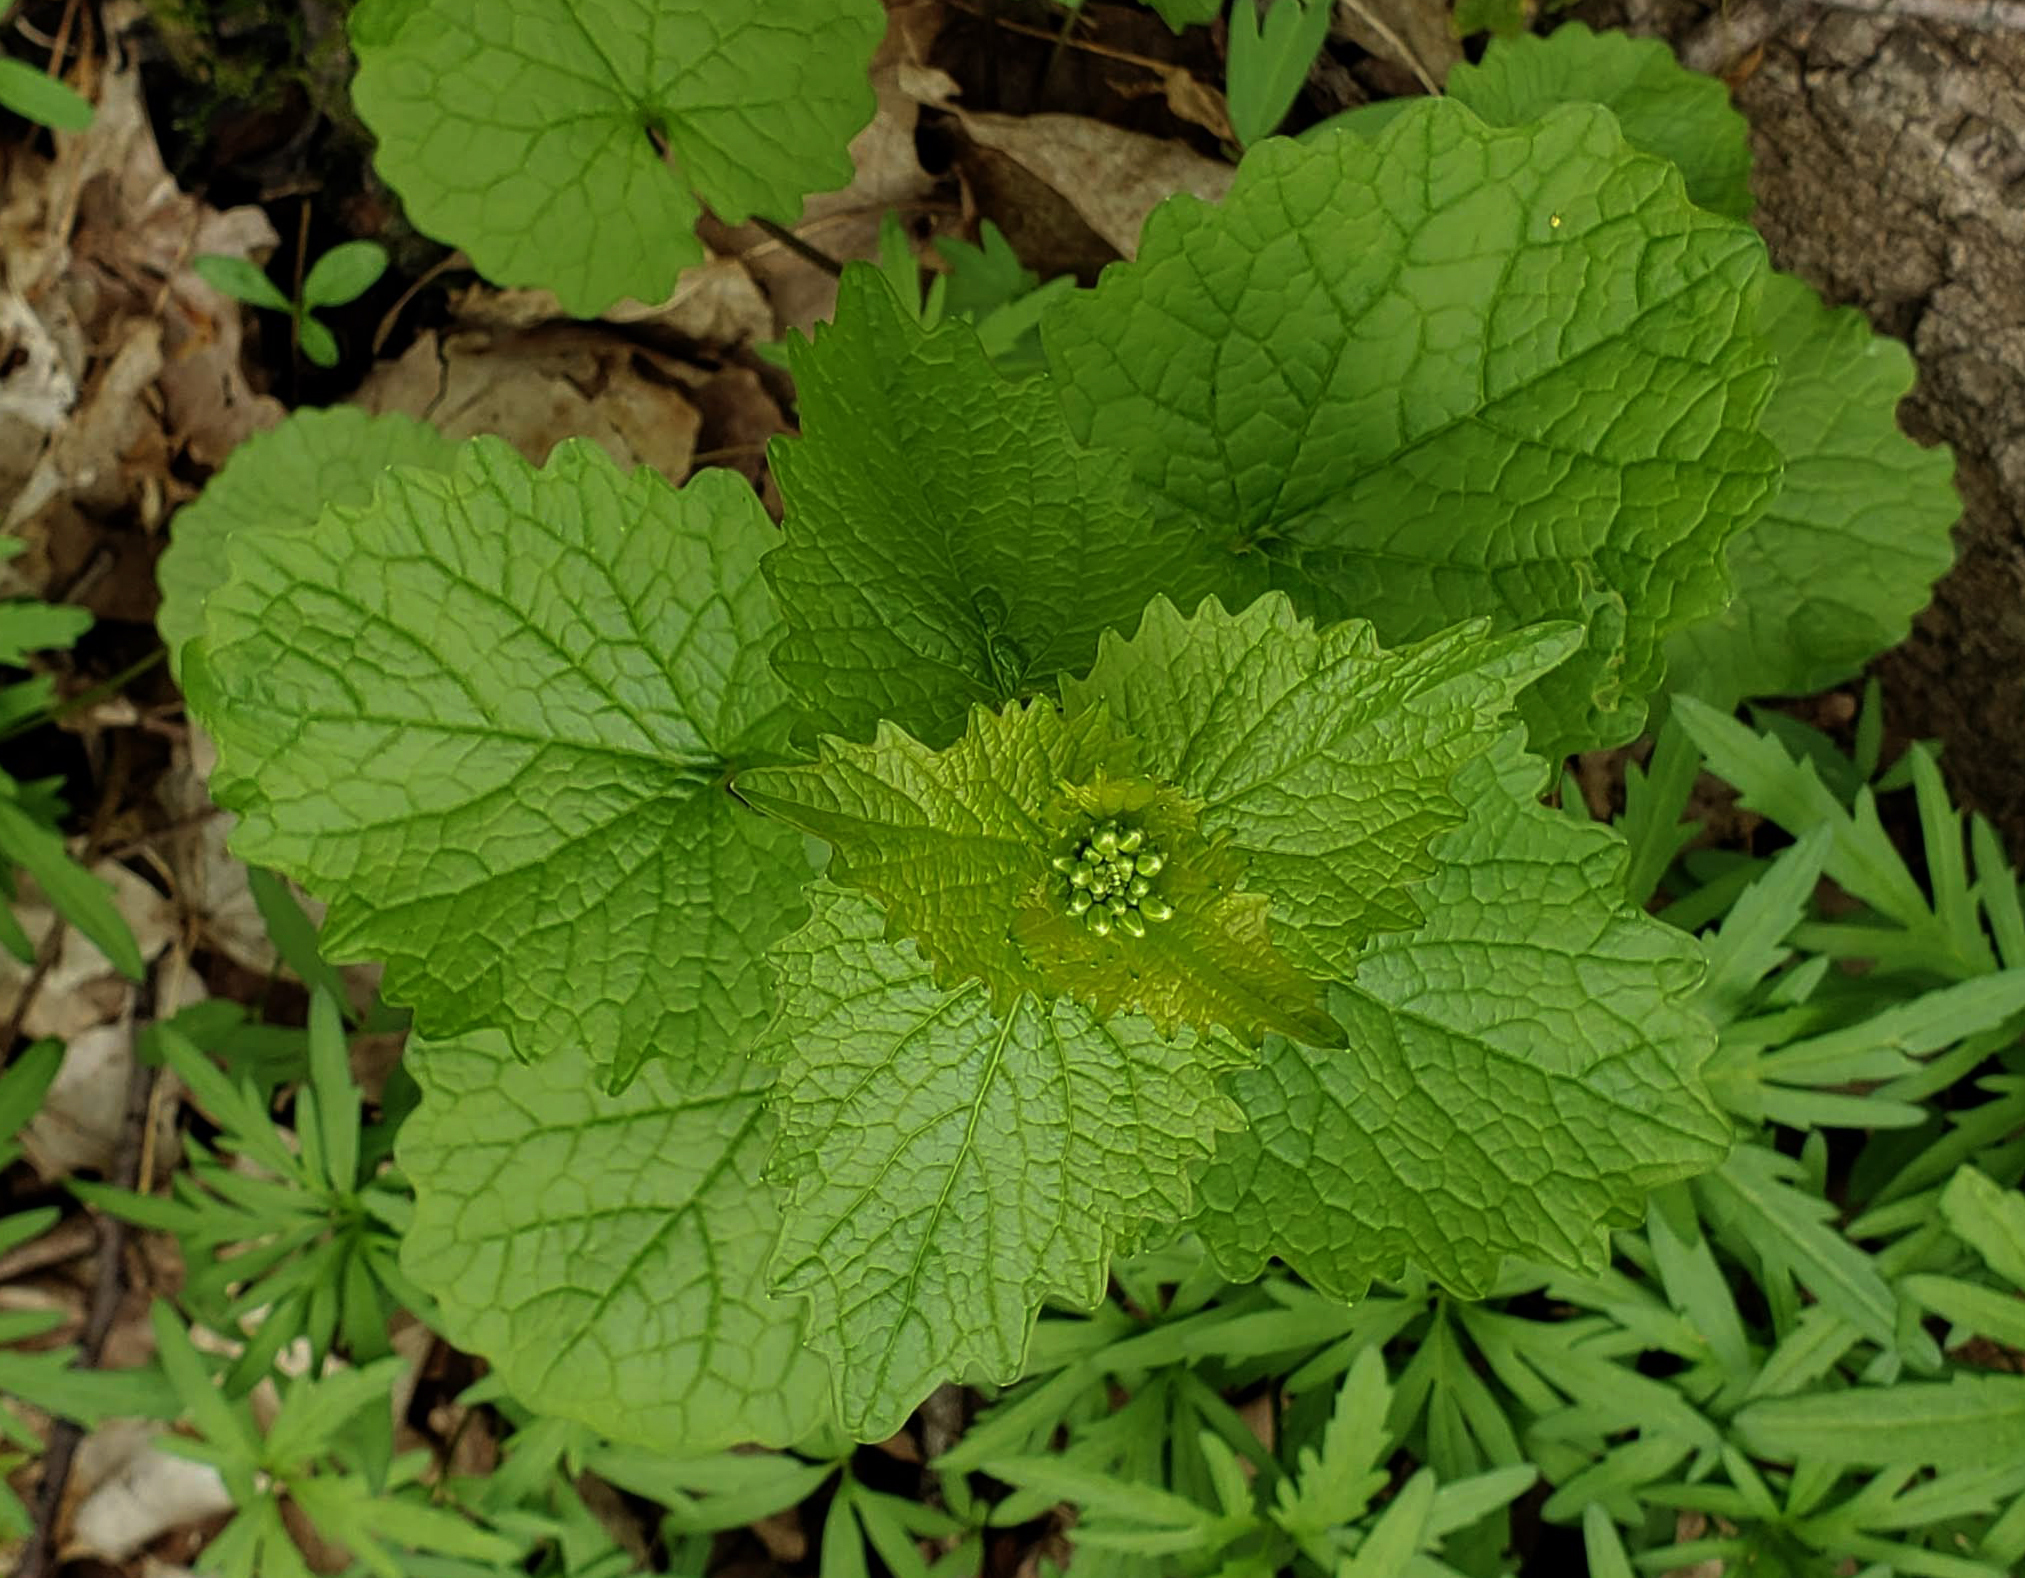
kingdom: Plantae
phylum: Tracheophyta
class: Magnoliopsida
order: Brassicales
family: Brassicaceae
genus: Alliaria
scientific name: Alliaria petiolata
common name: Garlic mustard
